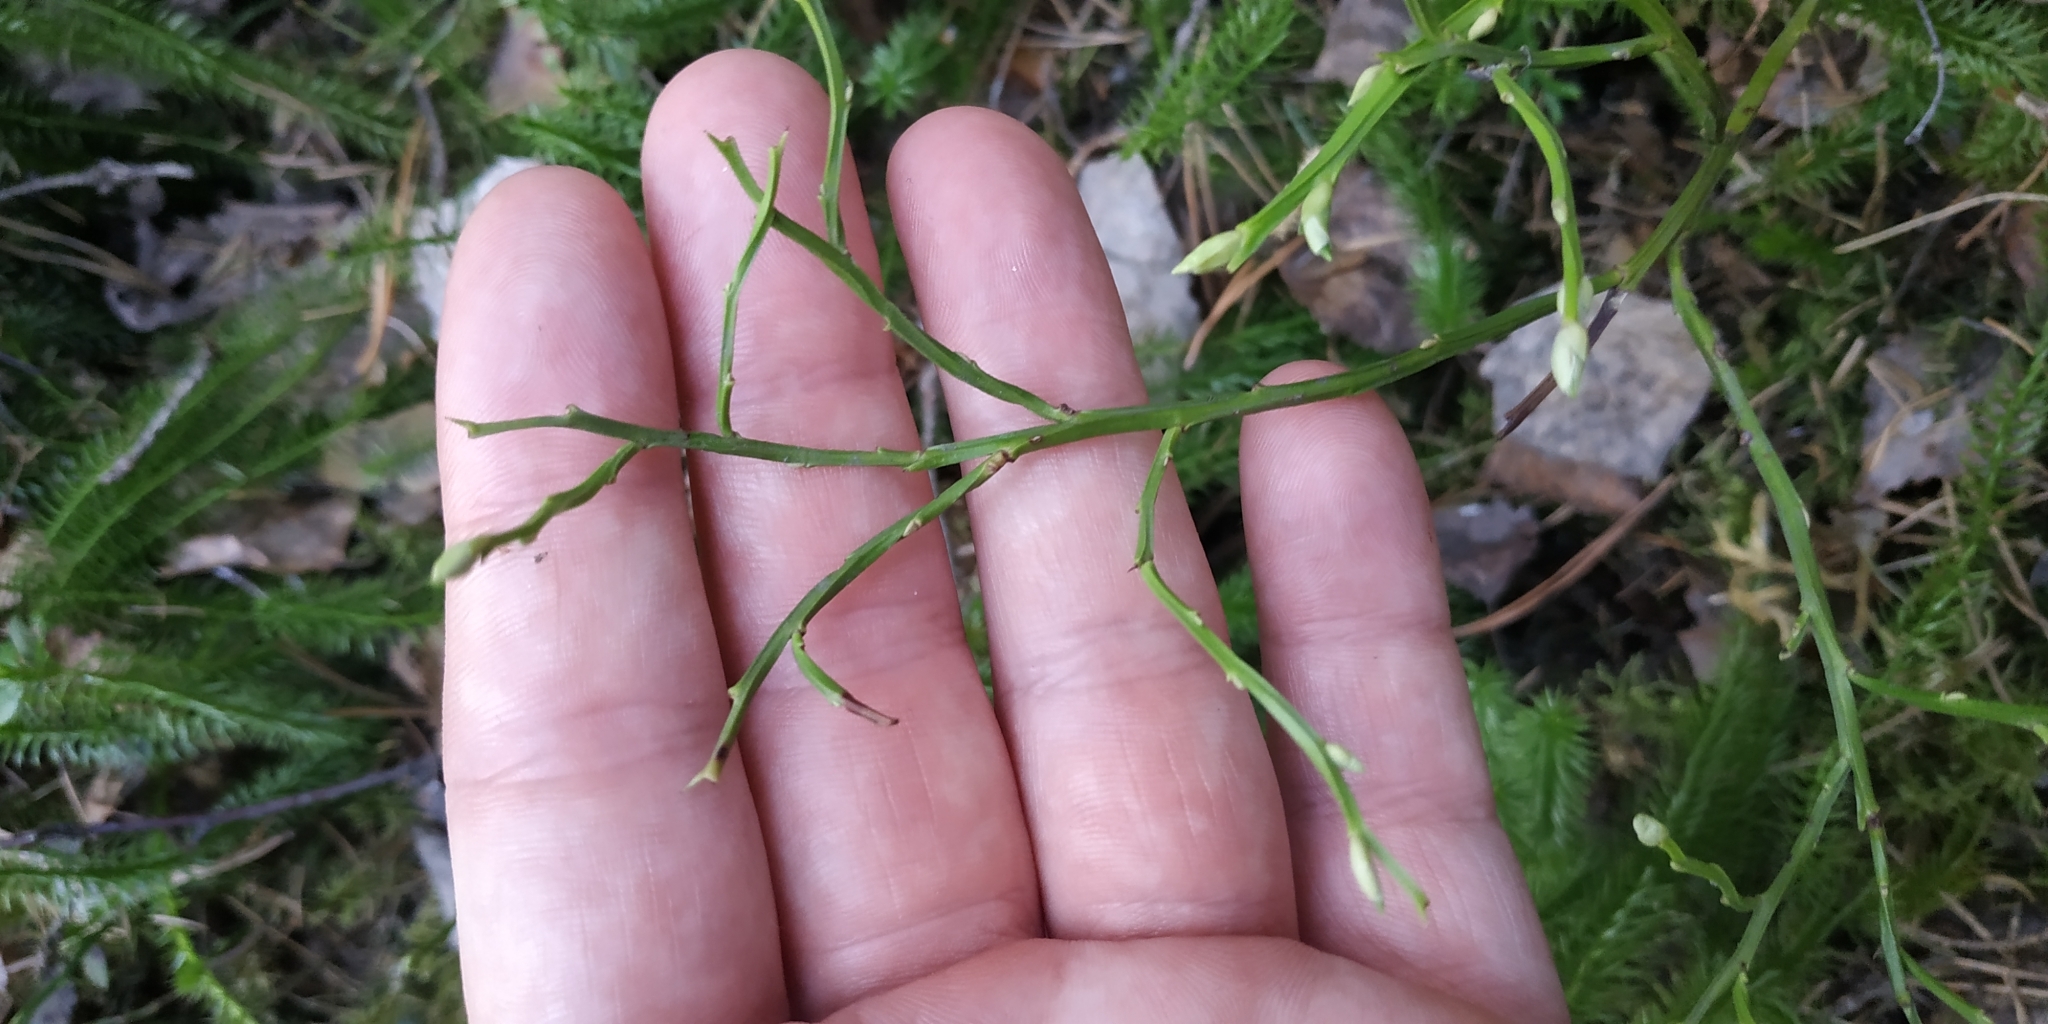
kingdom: Plantae
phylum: Tracheophyta
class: Magnoliopsida
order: Ericales
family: Ericaceae
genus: Vaccinium
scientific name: Vaccinium myrtillus
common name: Bilberry
